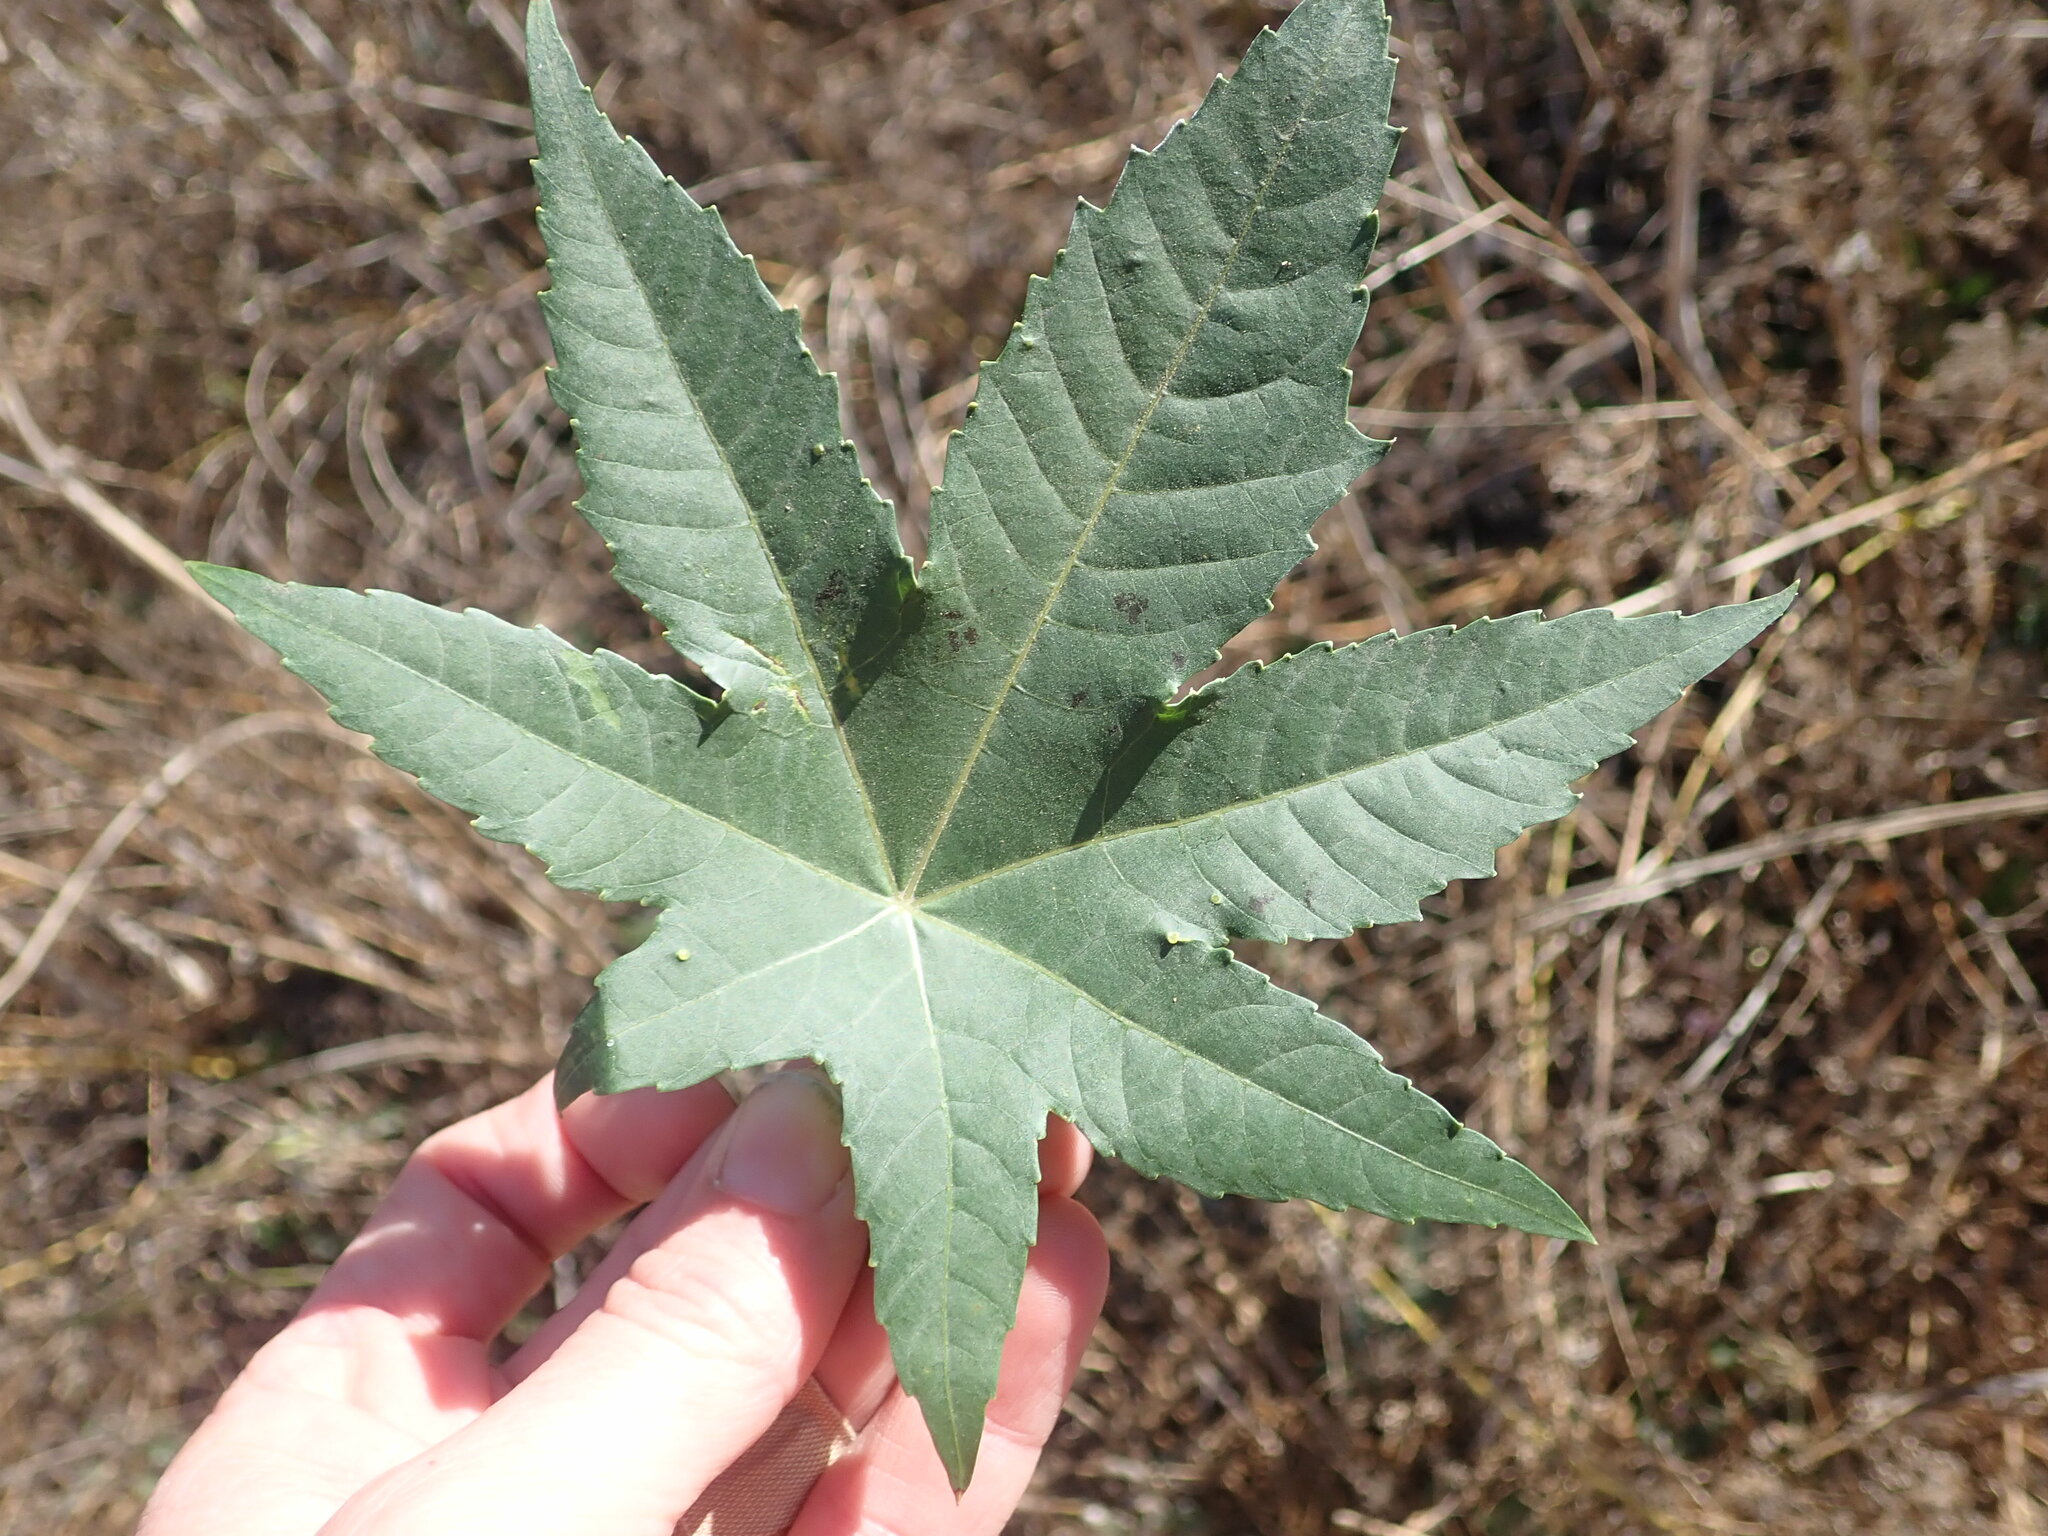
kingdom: Plantae
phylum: Tracheophyta
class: Magnoliopsida
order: Malpighiales
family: Euphorbiaceae
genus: Ricinus
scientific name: Ricinus communis
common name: Castor-oil-plant
